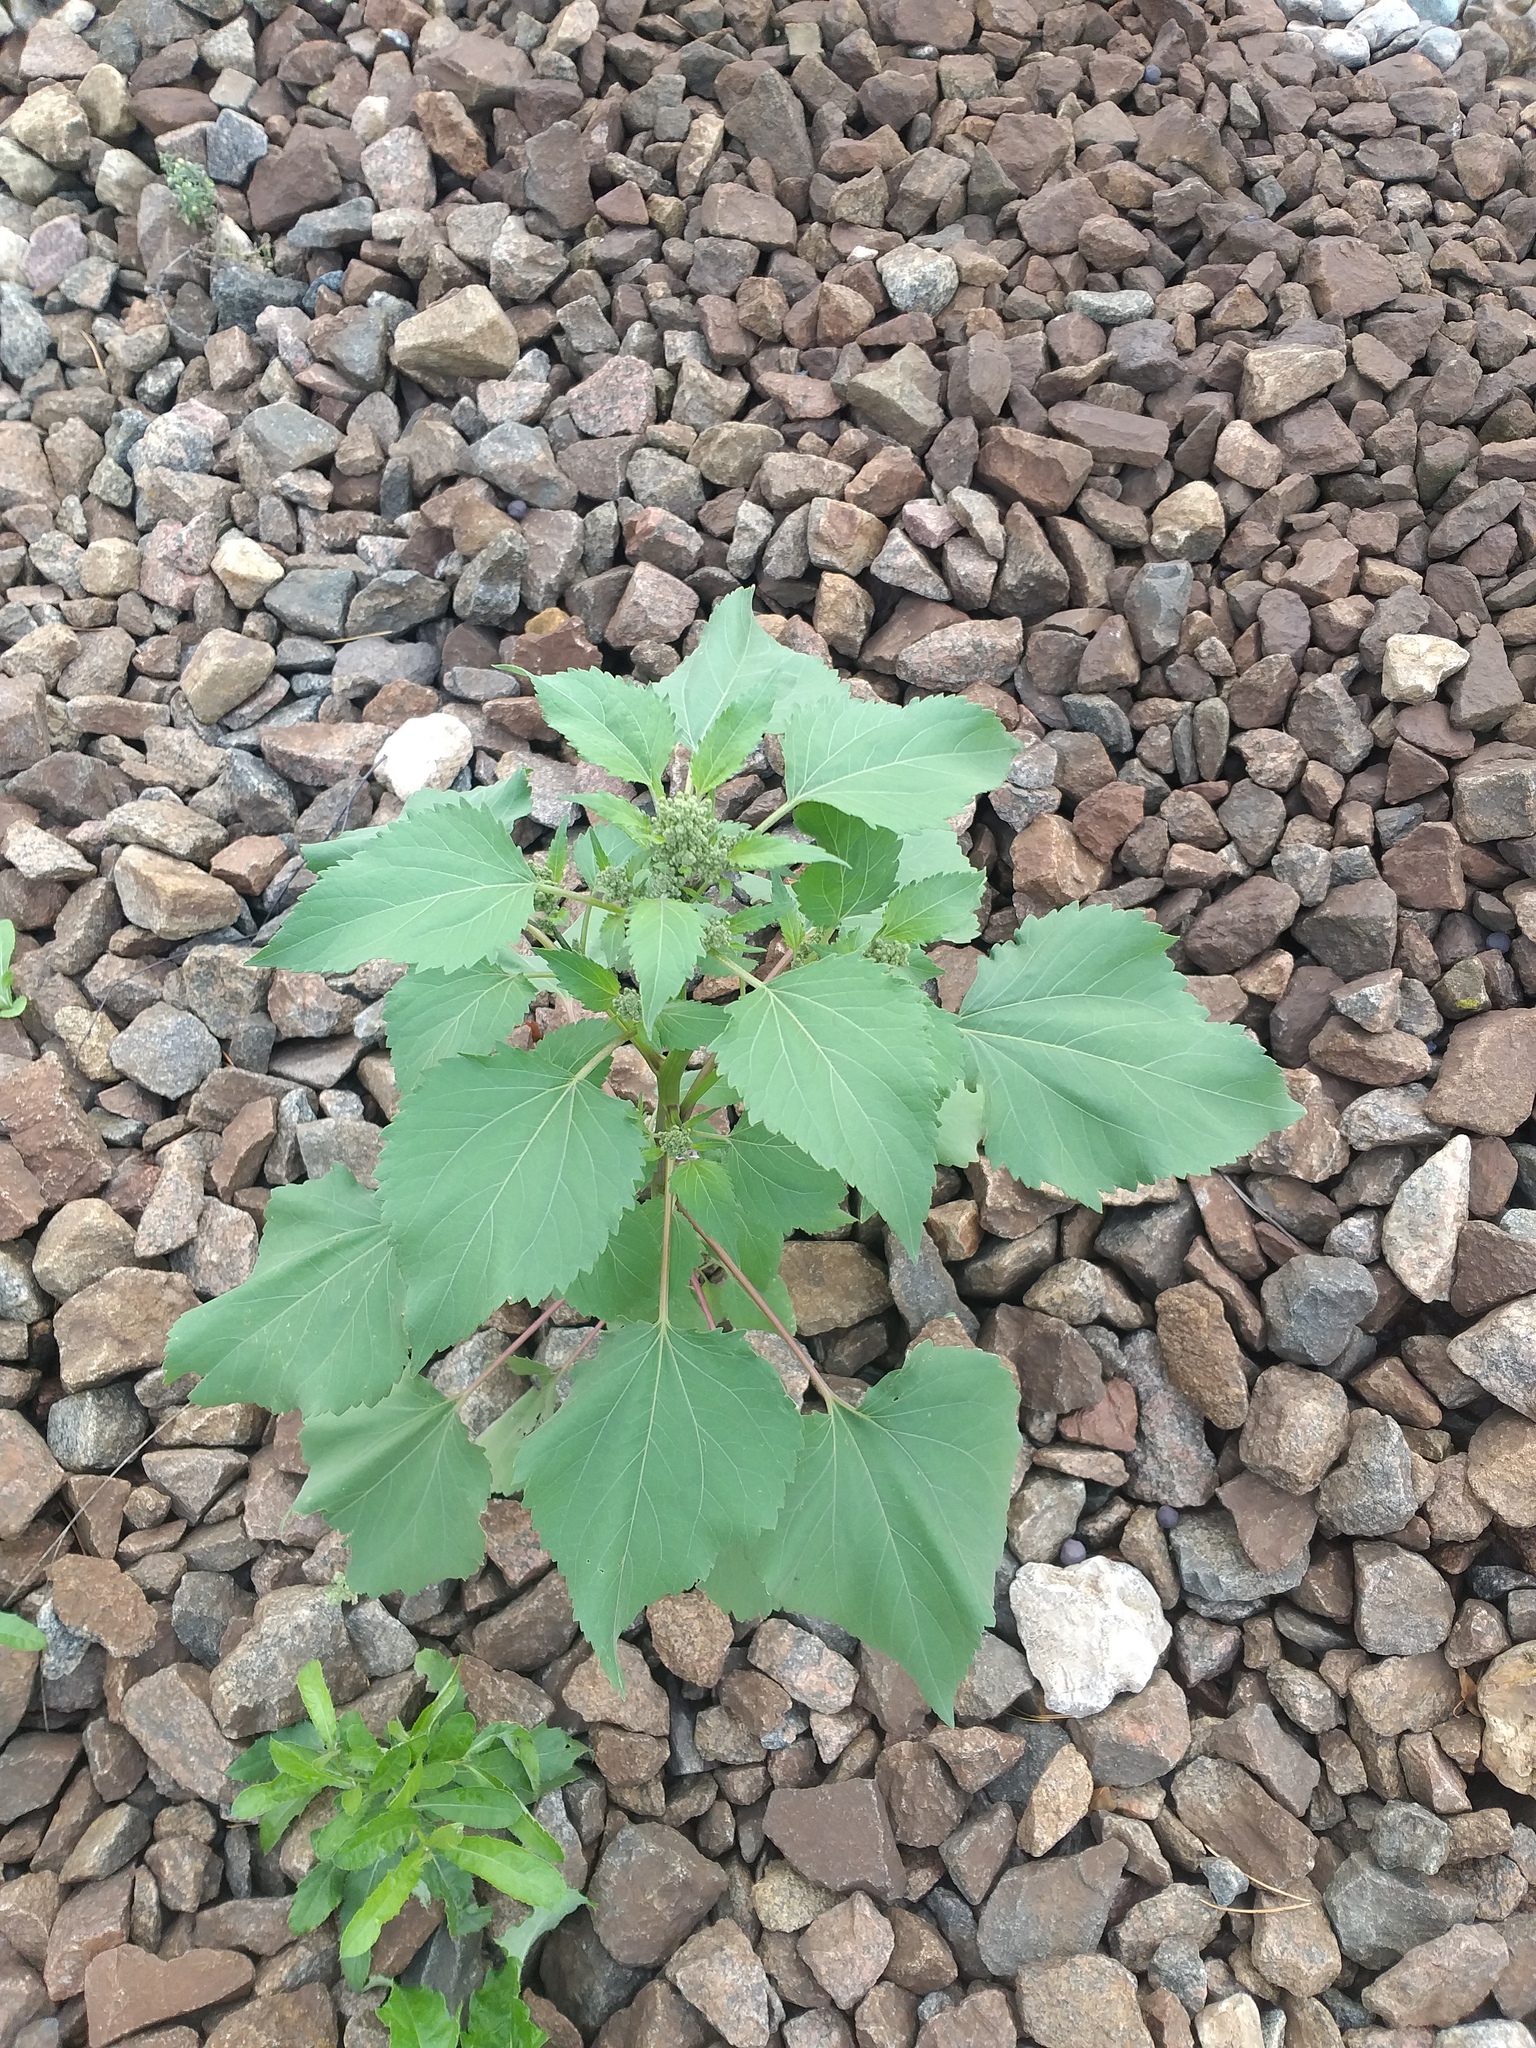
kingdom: Plantae
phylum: Tracheophyta
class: Magnoliopsida
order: Asterales
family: Asteraceae
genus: Cyclachaena
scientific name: Cyclachaena xanthiifolia
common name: Giant sumpweed
